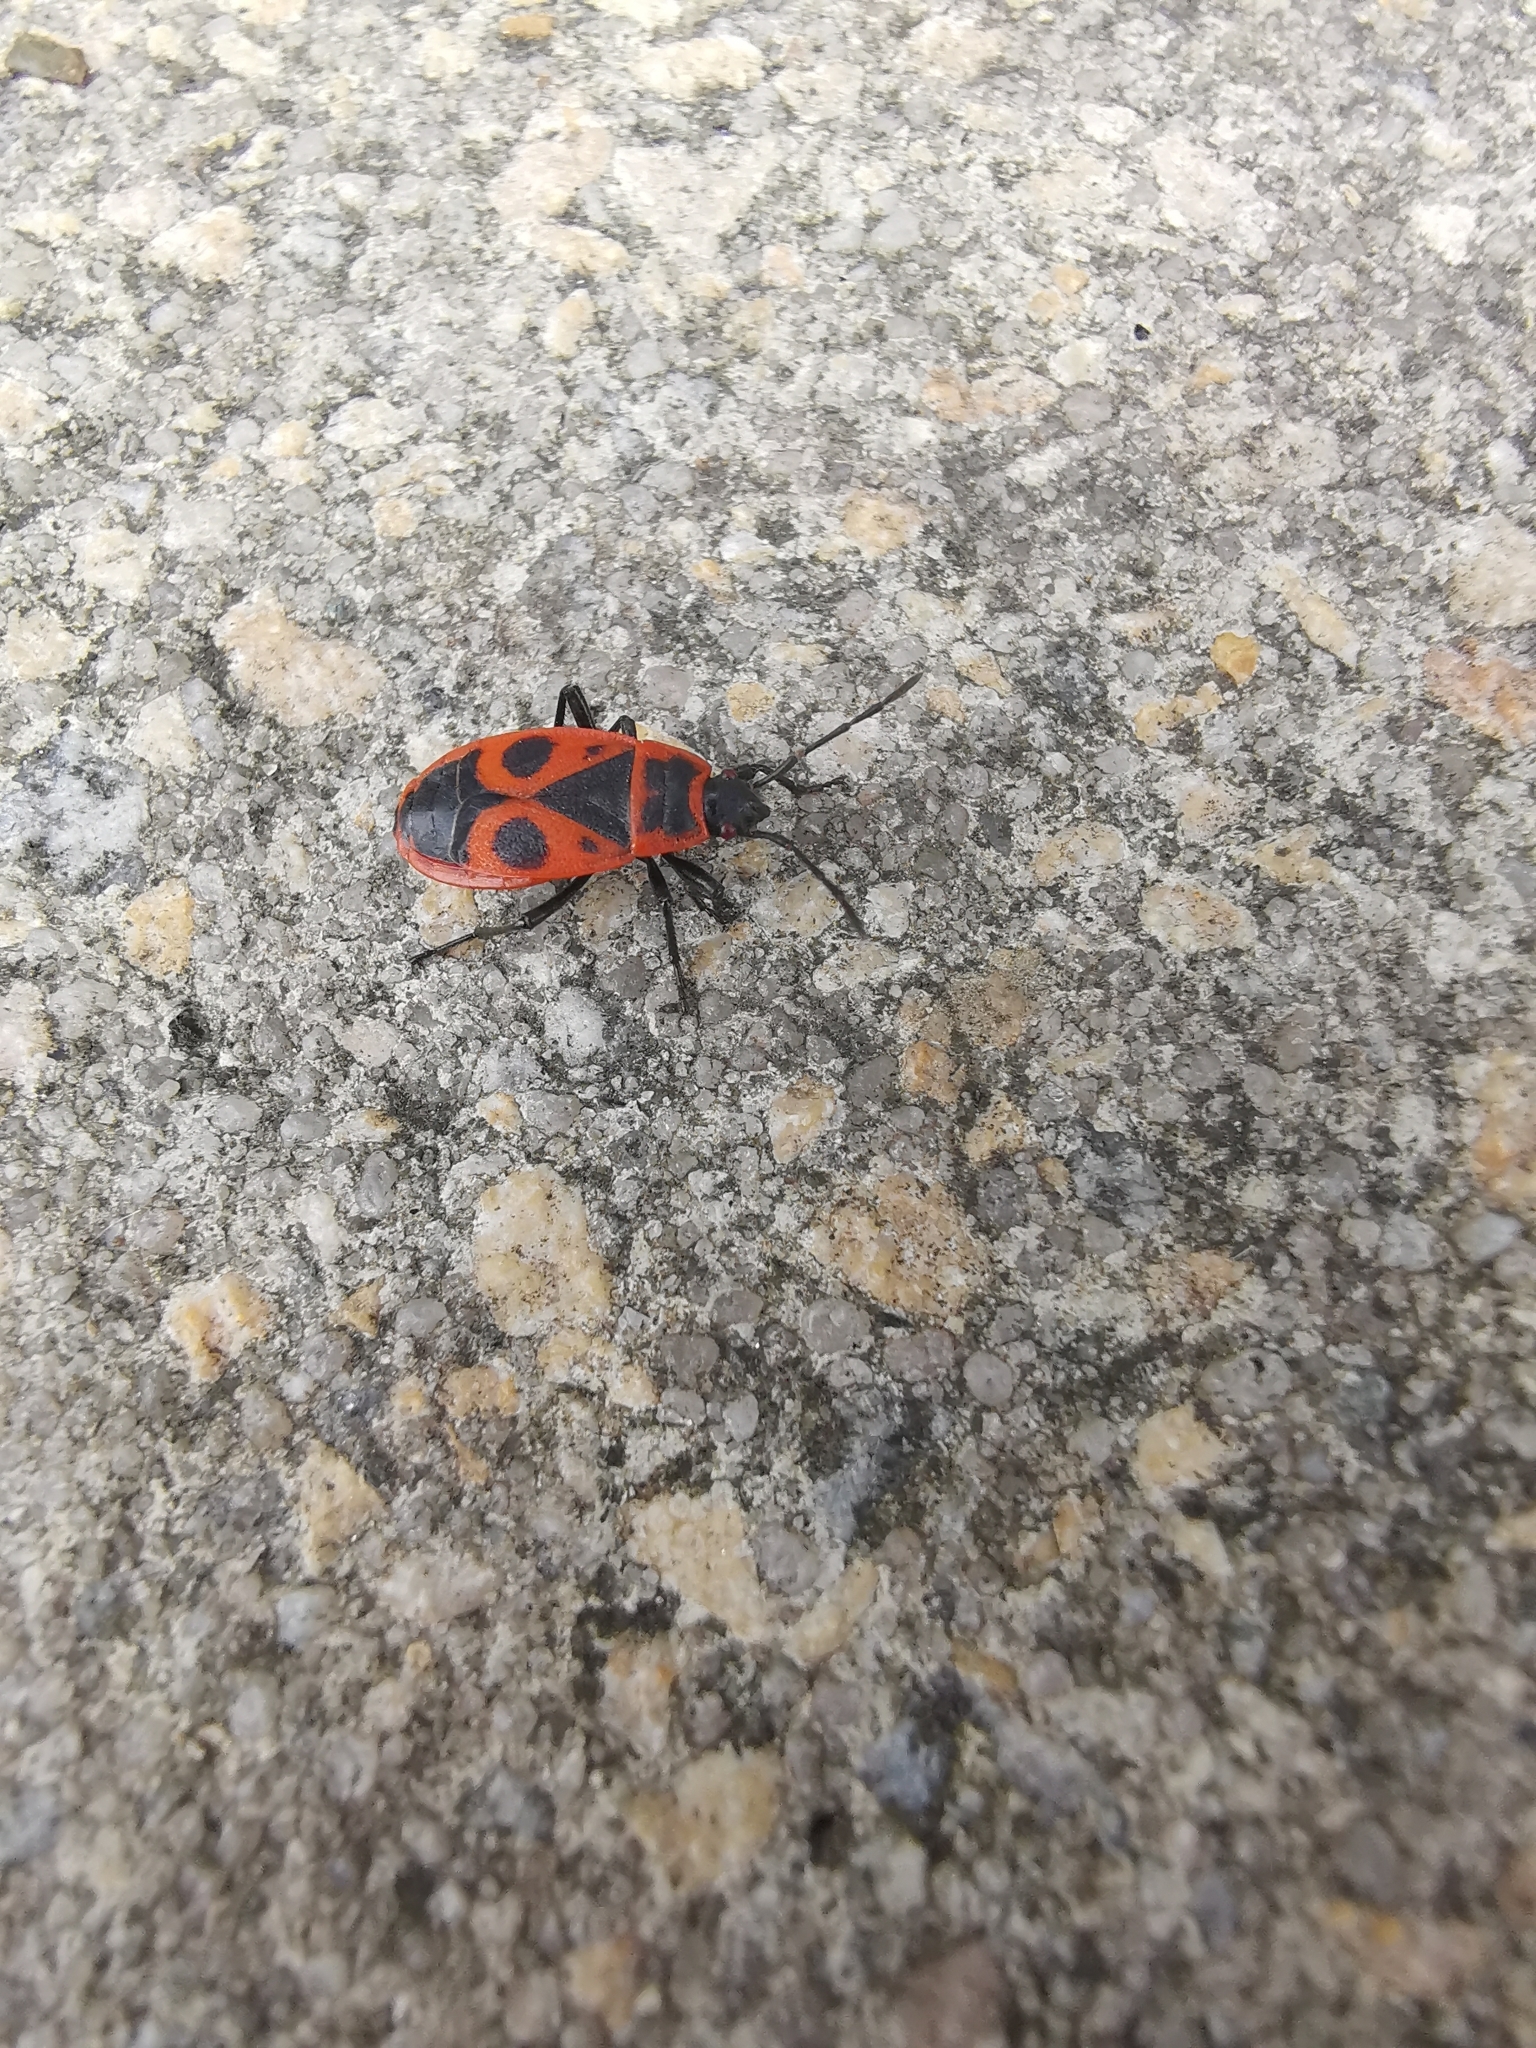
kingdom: Animalia
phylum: Arthropoda
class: Insecta
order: Hemiptera
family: Pyrrhocoridae
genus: Pyrrhocoris
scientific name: Pyrrhocoris apterus
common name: Firebug
